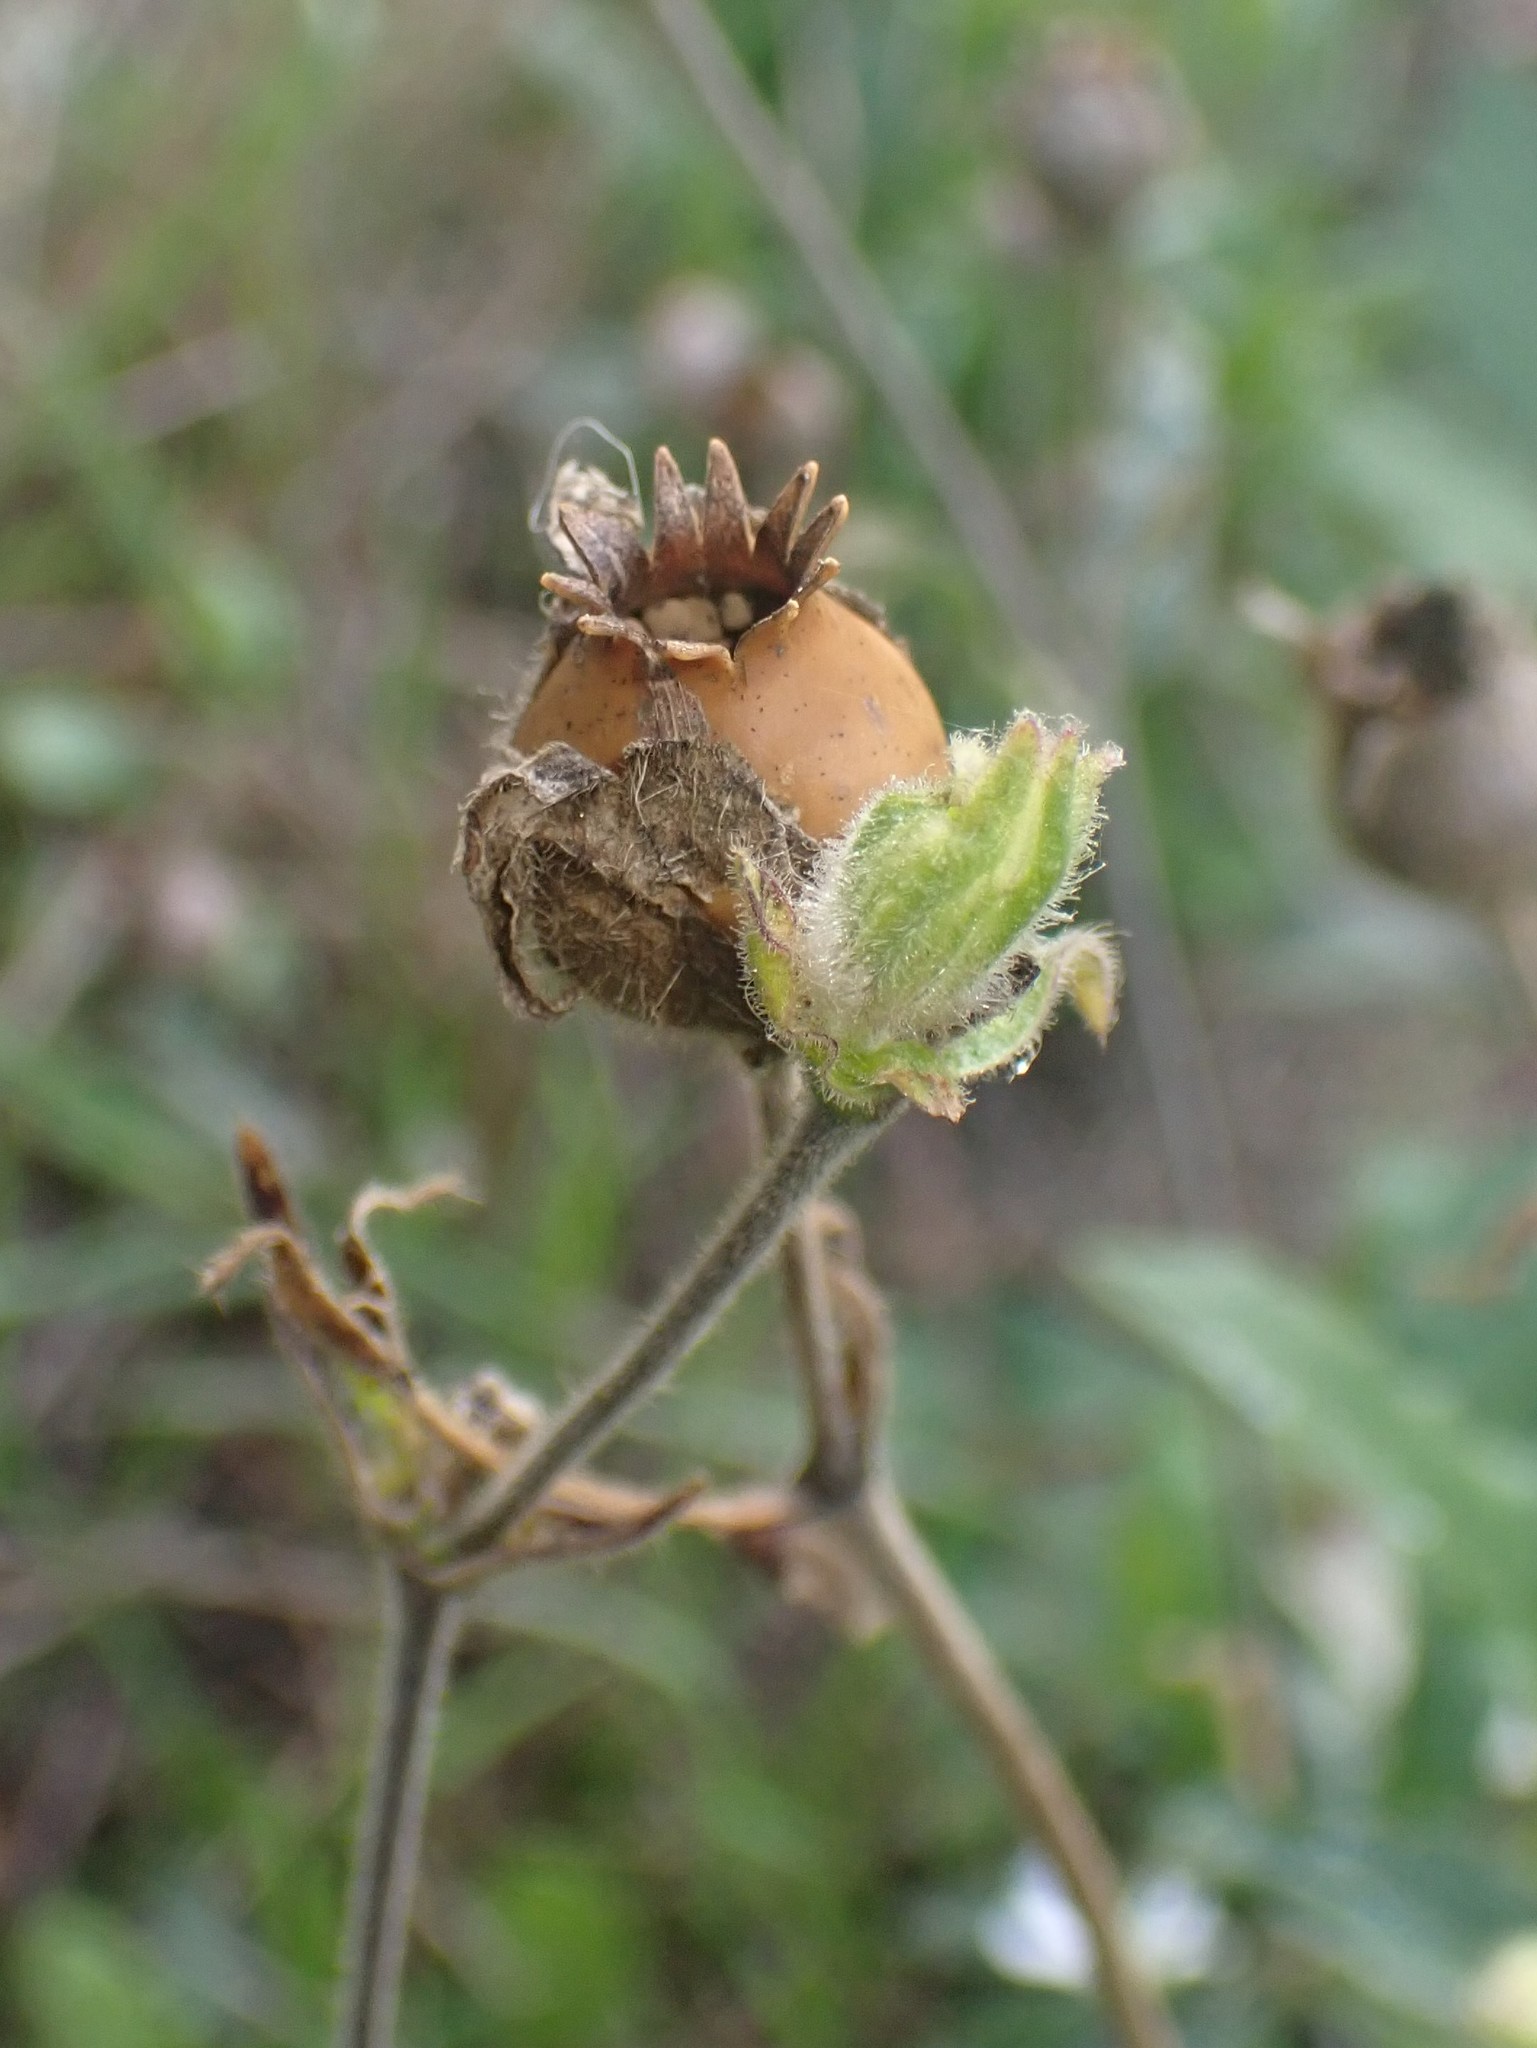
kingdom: Plantae
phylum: Tracheophyta
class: Magnoliopsida
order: Caryophyllales
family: Caryophyllaceae
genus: Silene
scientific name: Silene latifolia
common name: White campion
